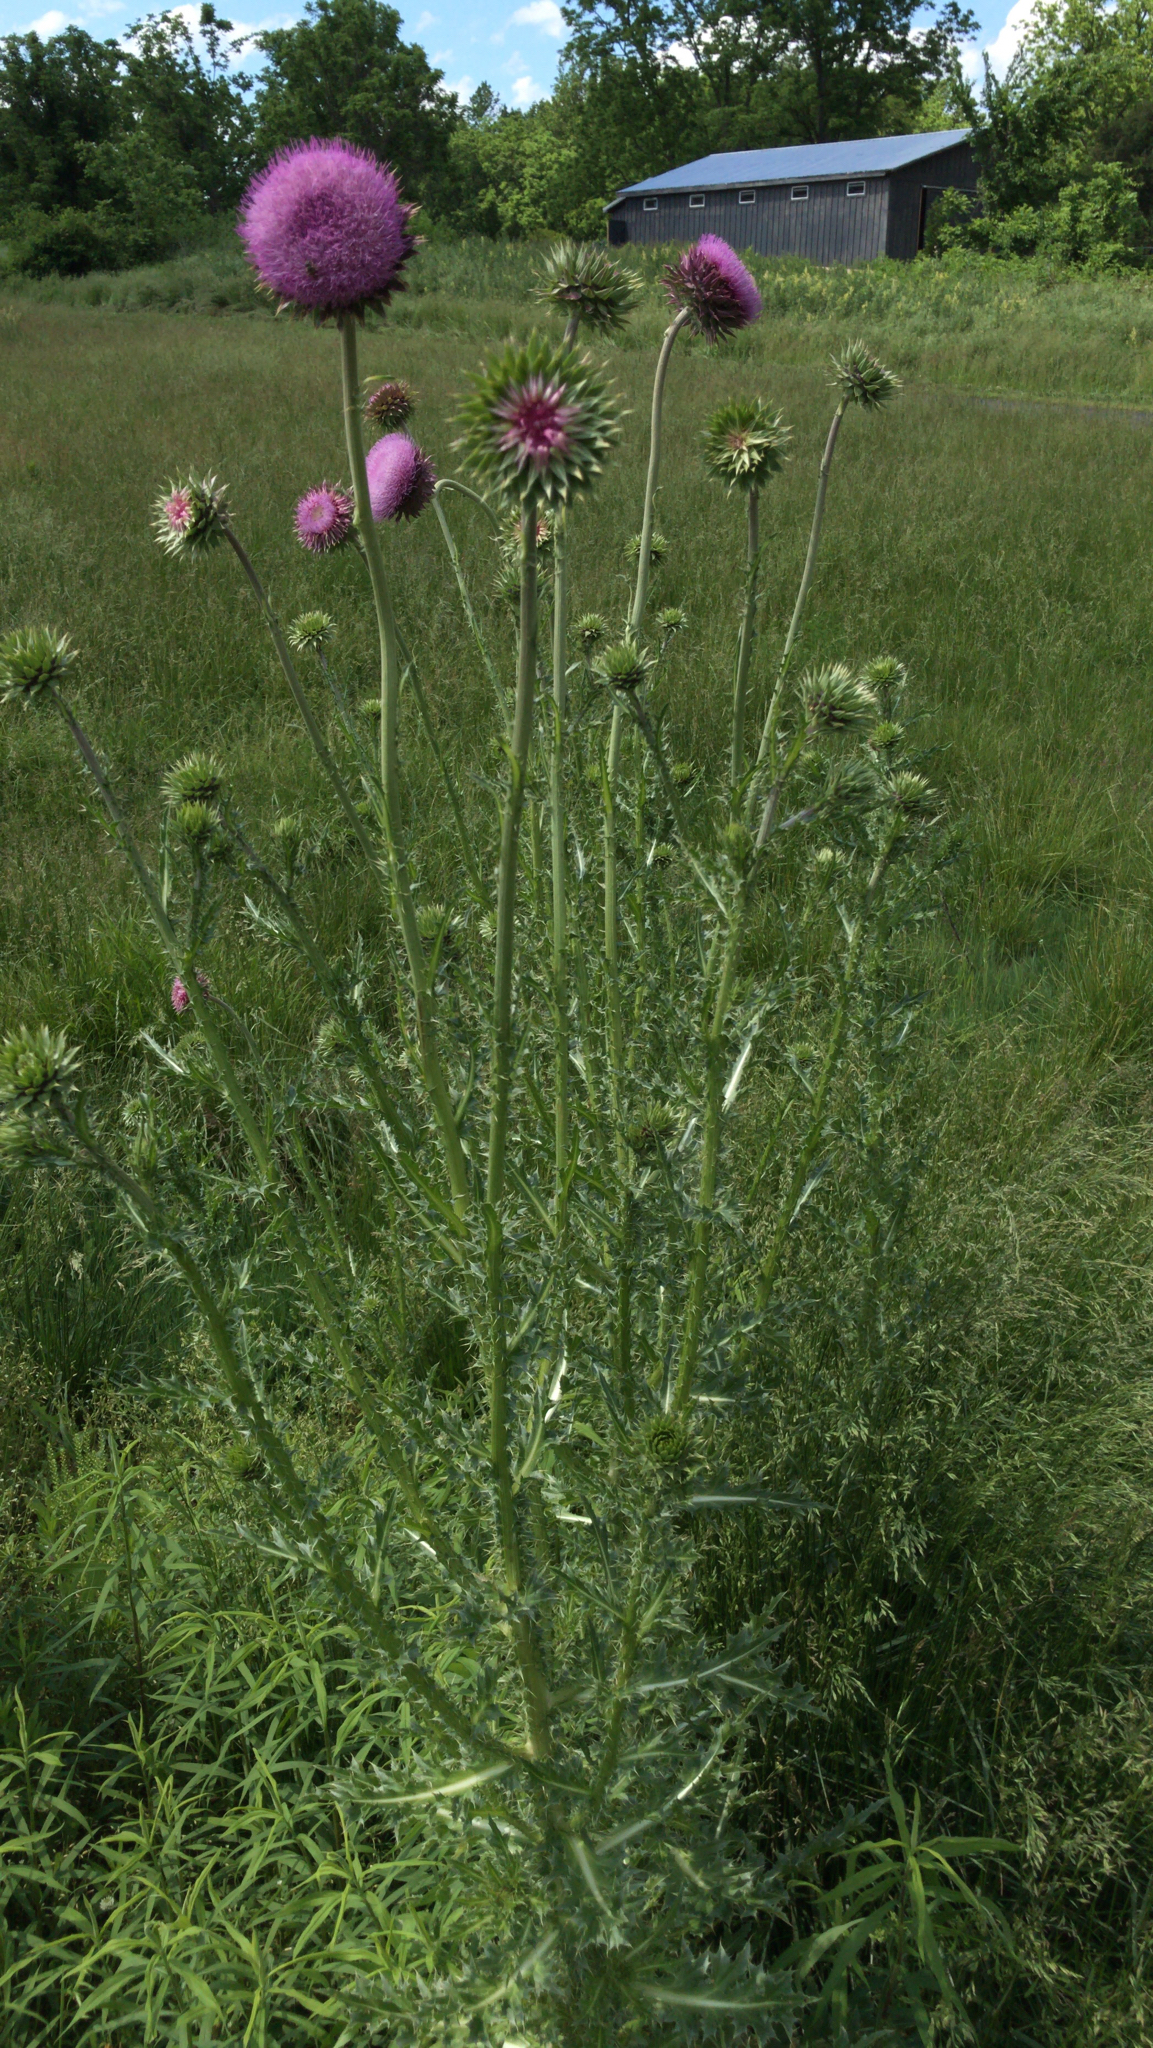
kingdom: Plantae
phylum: Tracheophyta
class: Magnoliopsida
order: Asterales
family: Asteraceae
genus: Carduus
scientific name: Carduus nutans
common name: Musk thistle
